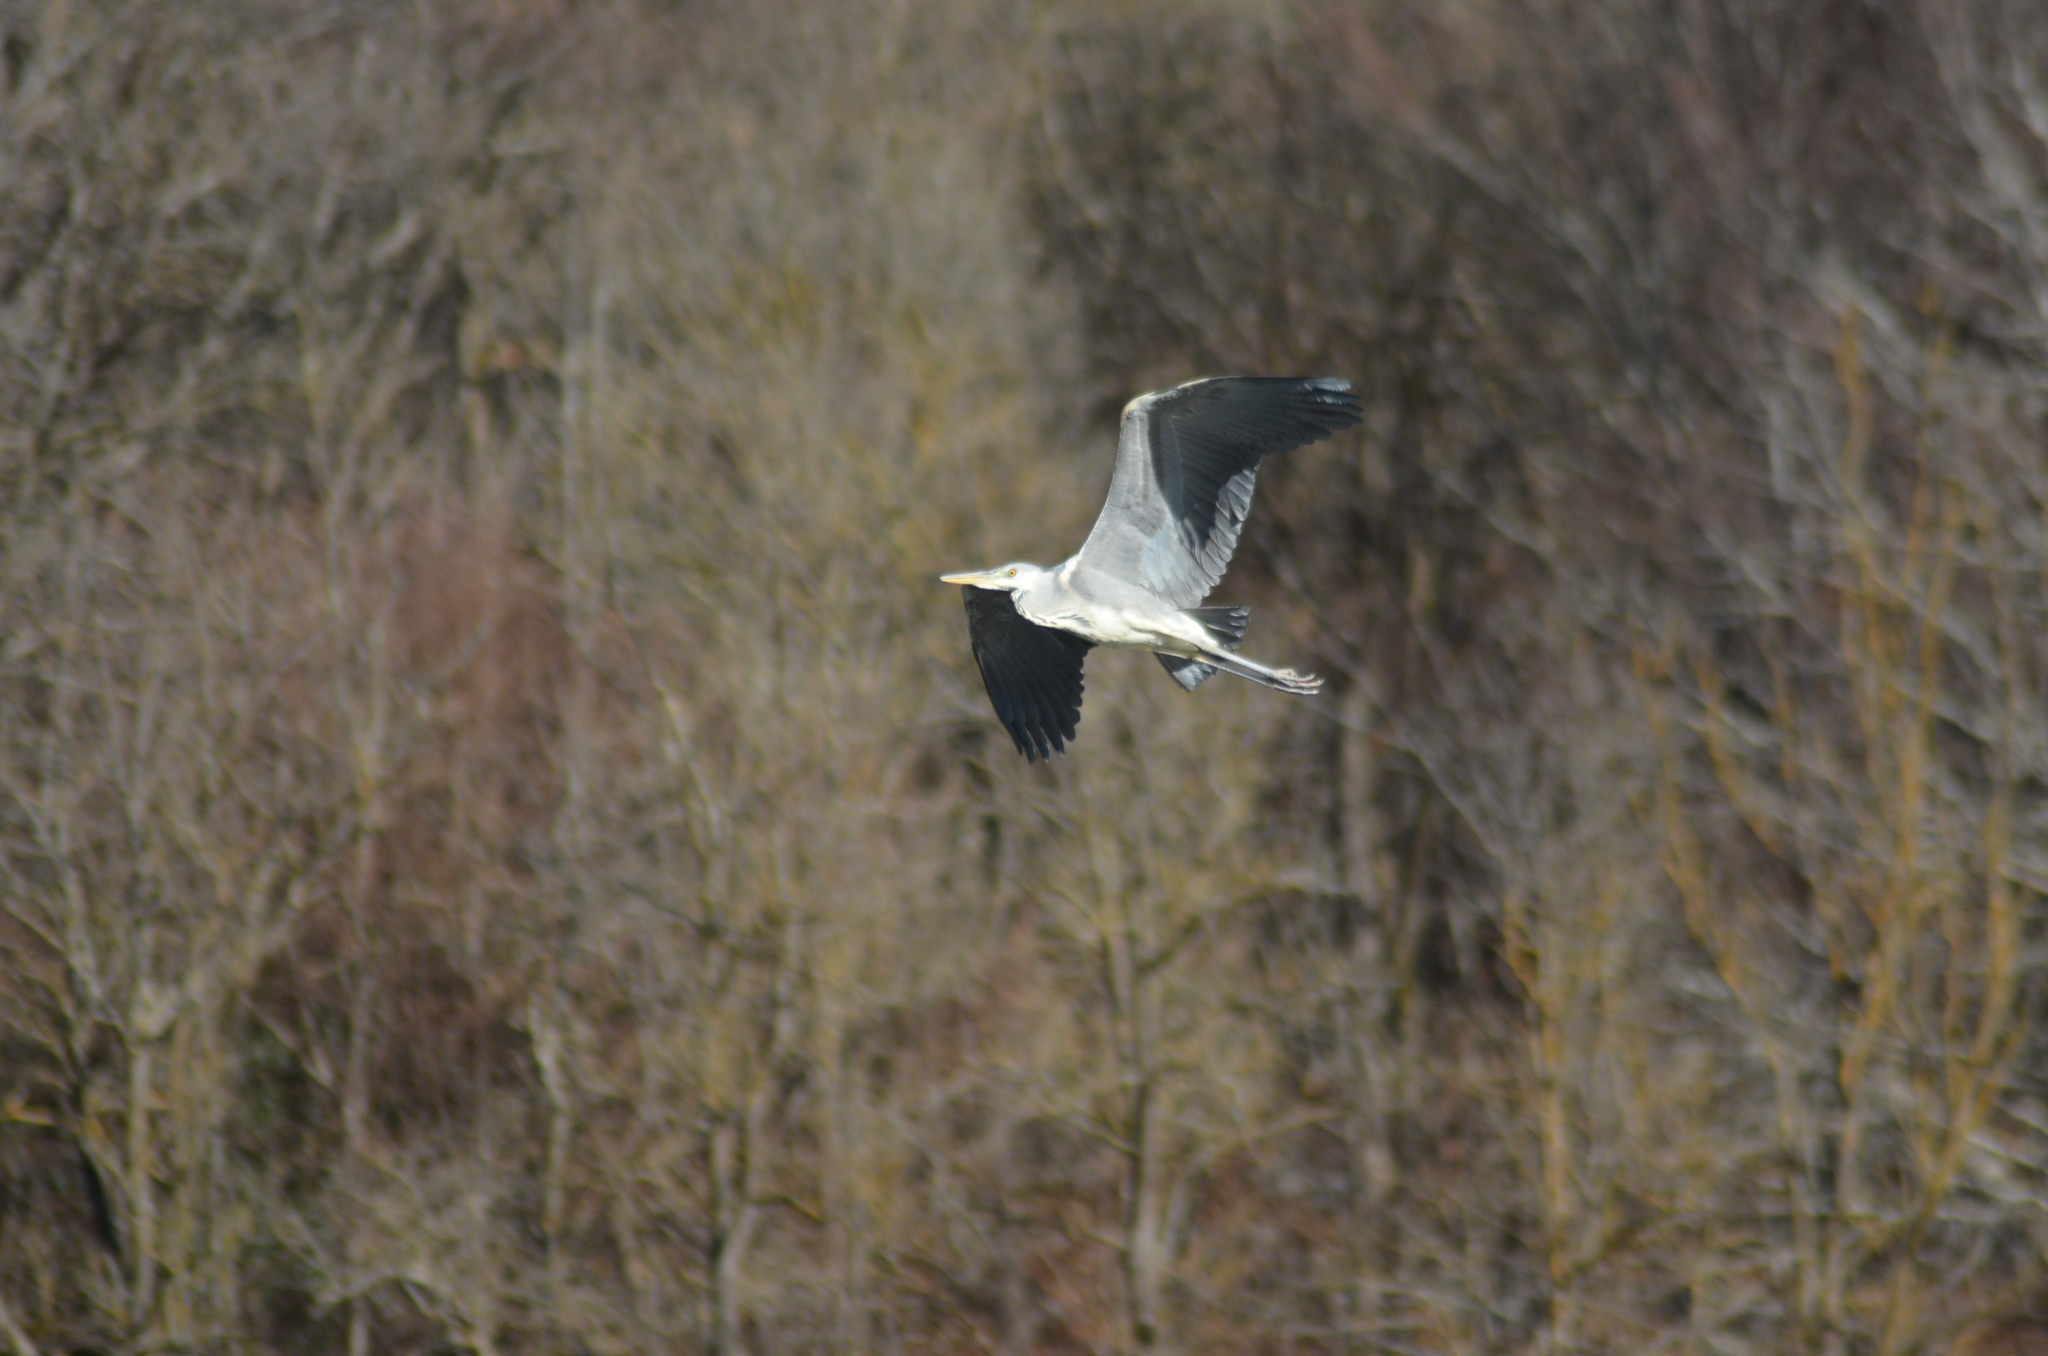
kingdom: Animalia
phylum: Chordata
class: Aves
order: Pelecaniformes
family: Ardeidae
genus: Ardea
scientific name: Ardea cinerea
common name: Grey heron
